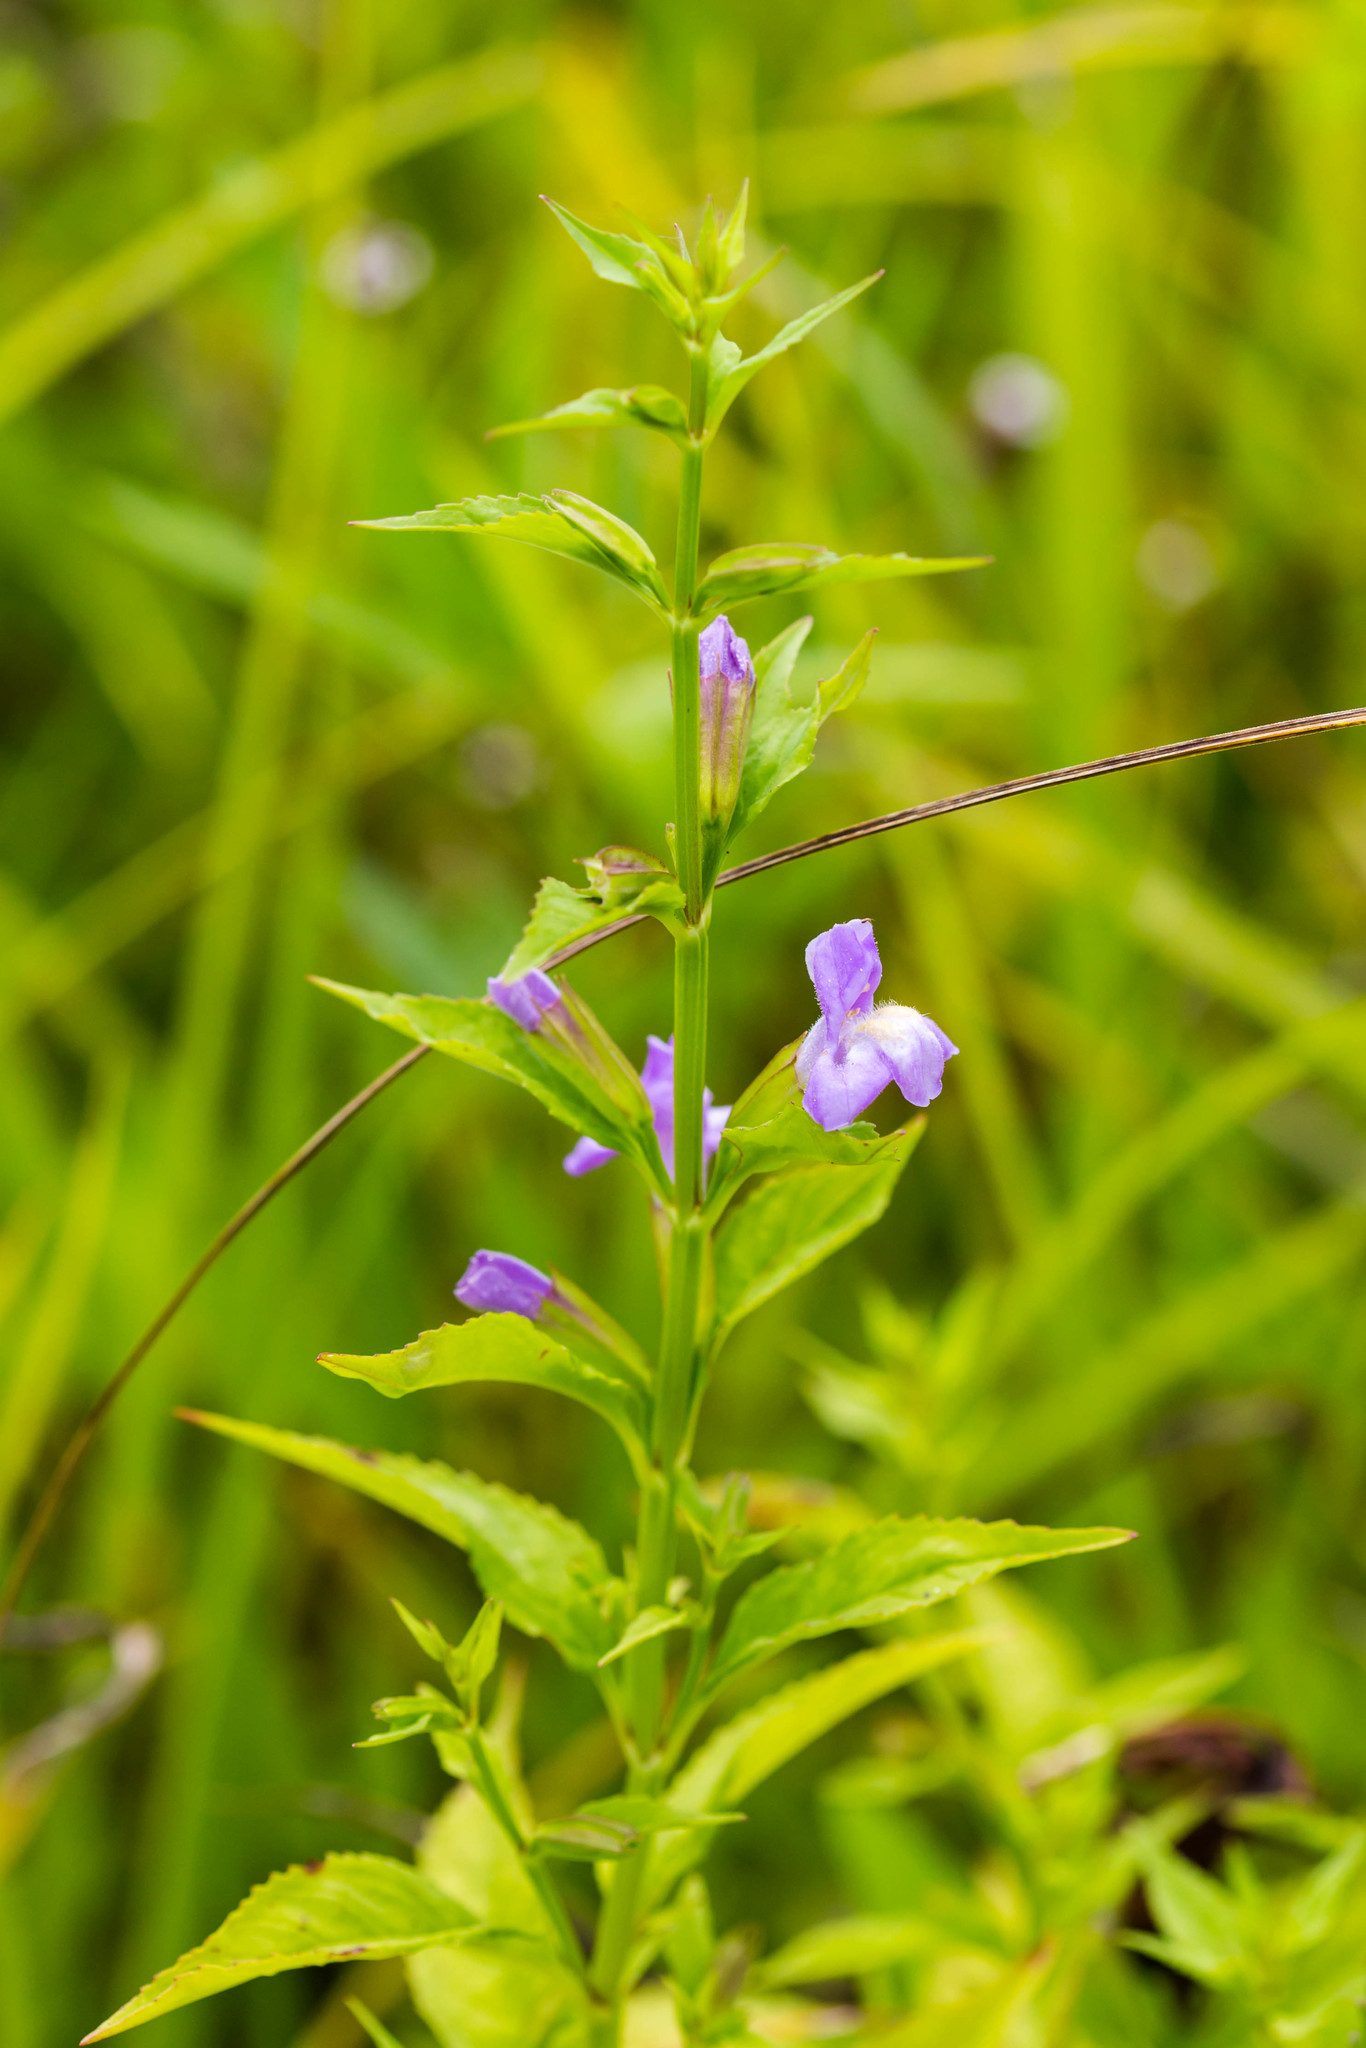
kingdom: Plantae
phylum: Tracheophyta
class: Magnoliopsida
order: Lamiales
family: Phrymaceae
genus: Mimulus
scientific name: Mimulus alatus
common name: Sharp-wing monkey-flower
